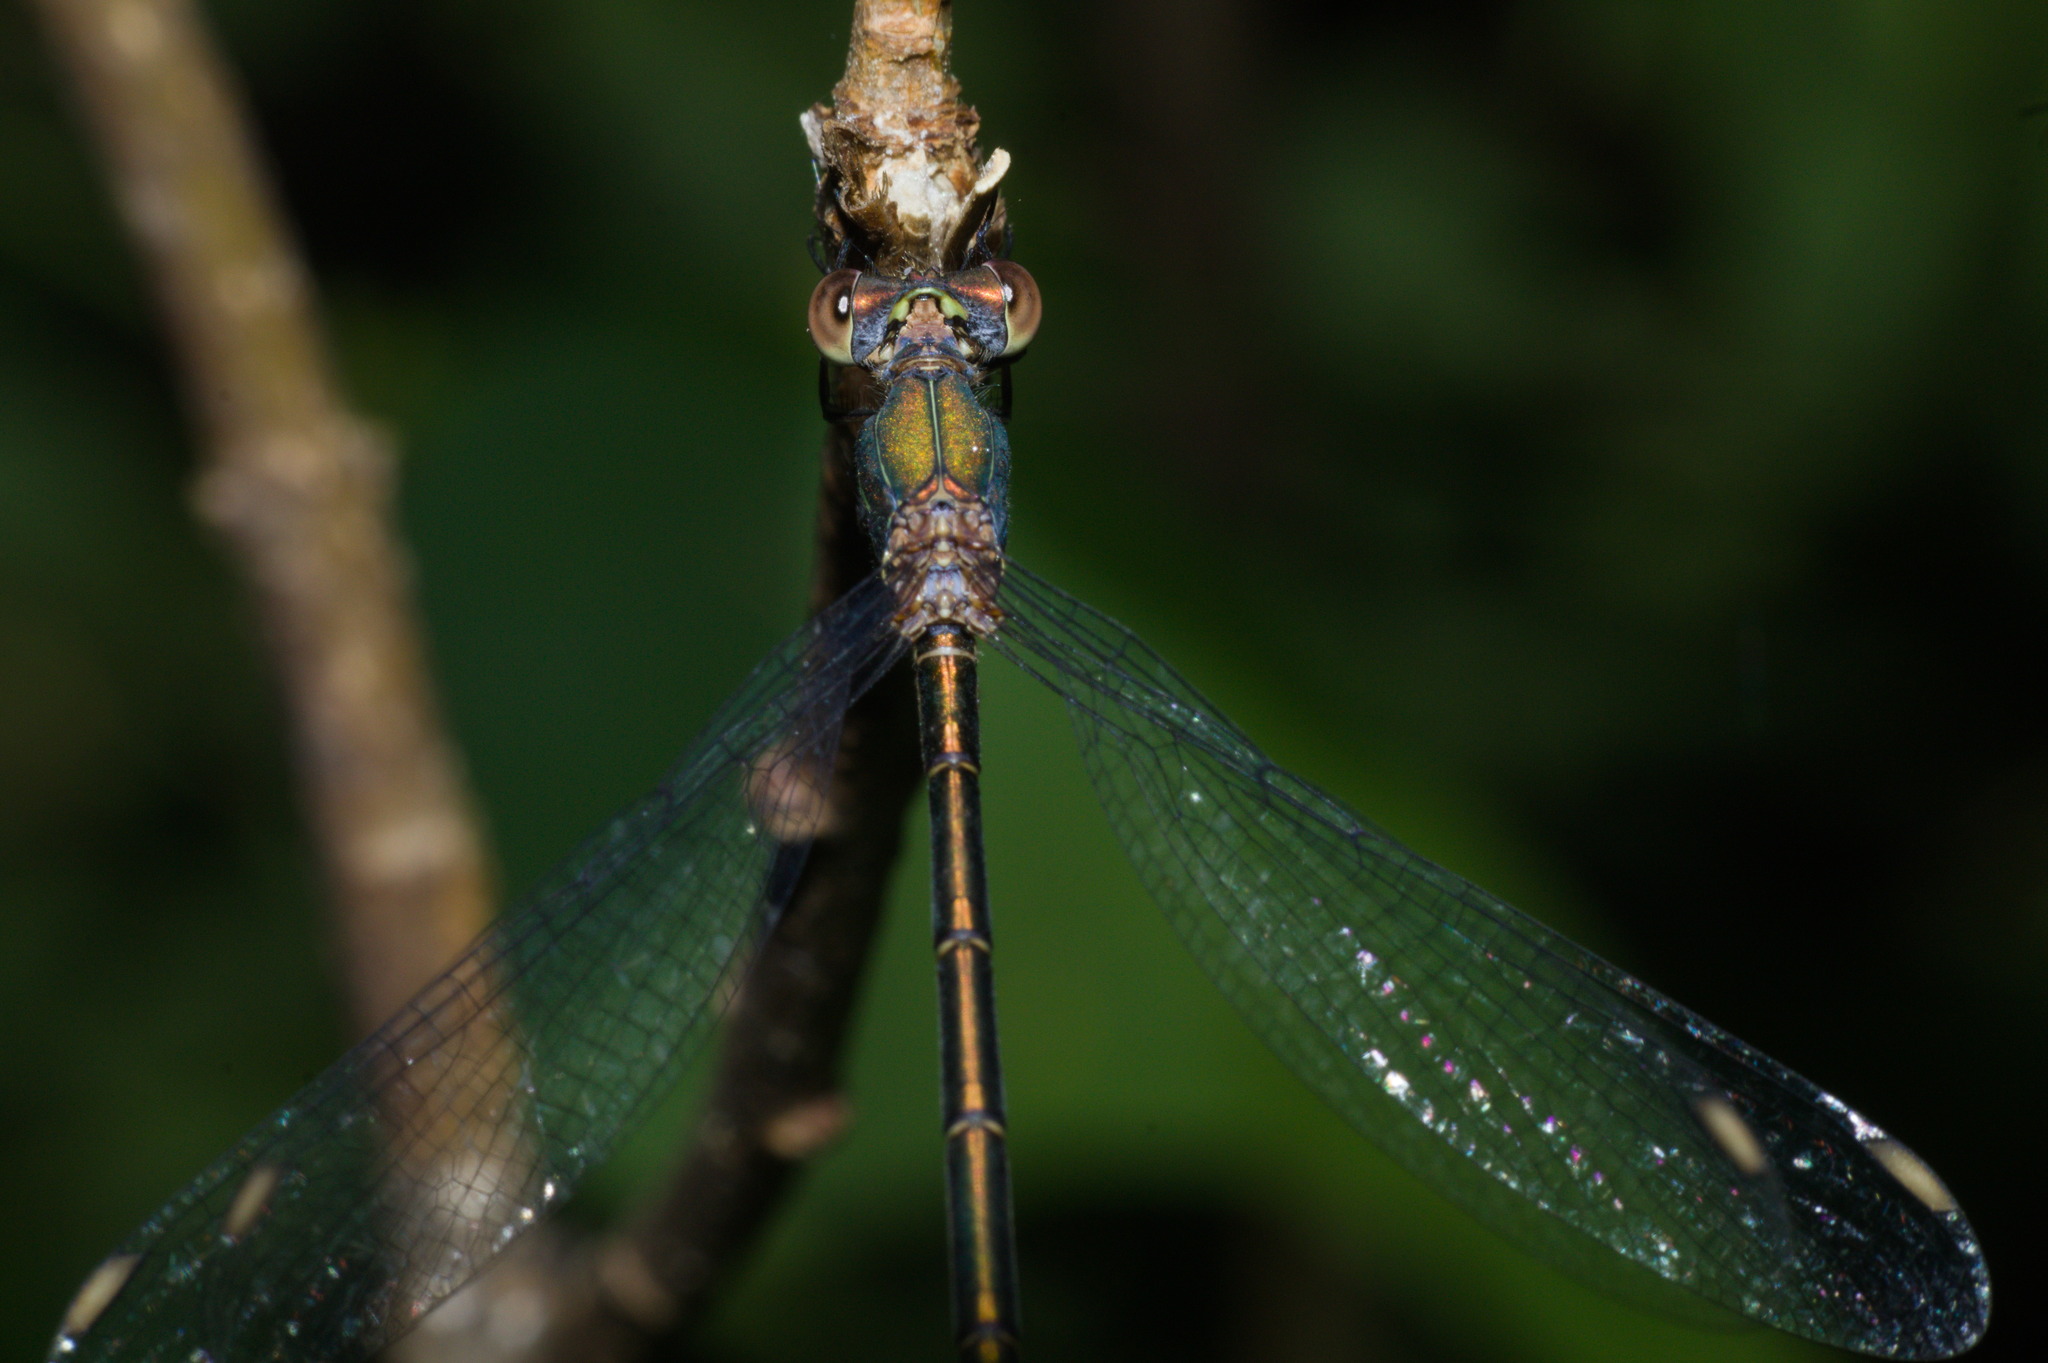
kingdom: Animalia
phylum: Arthropoda
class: Insecta
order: Odonata
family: Lestidae
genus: Chalcolestes
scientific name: Chalcolestes viridis
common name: Green emerald damselfly
